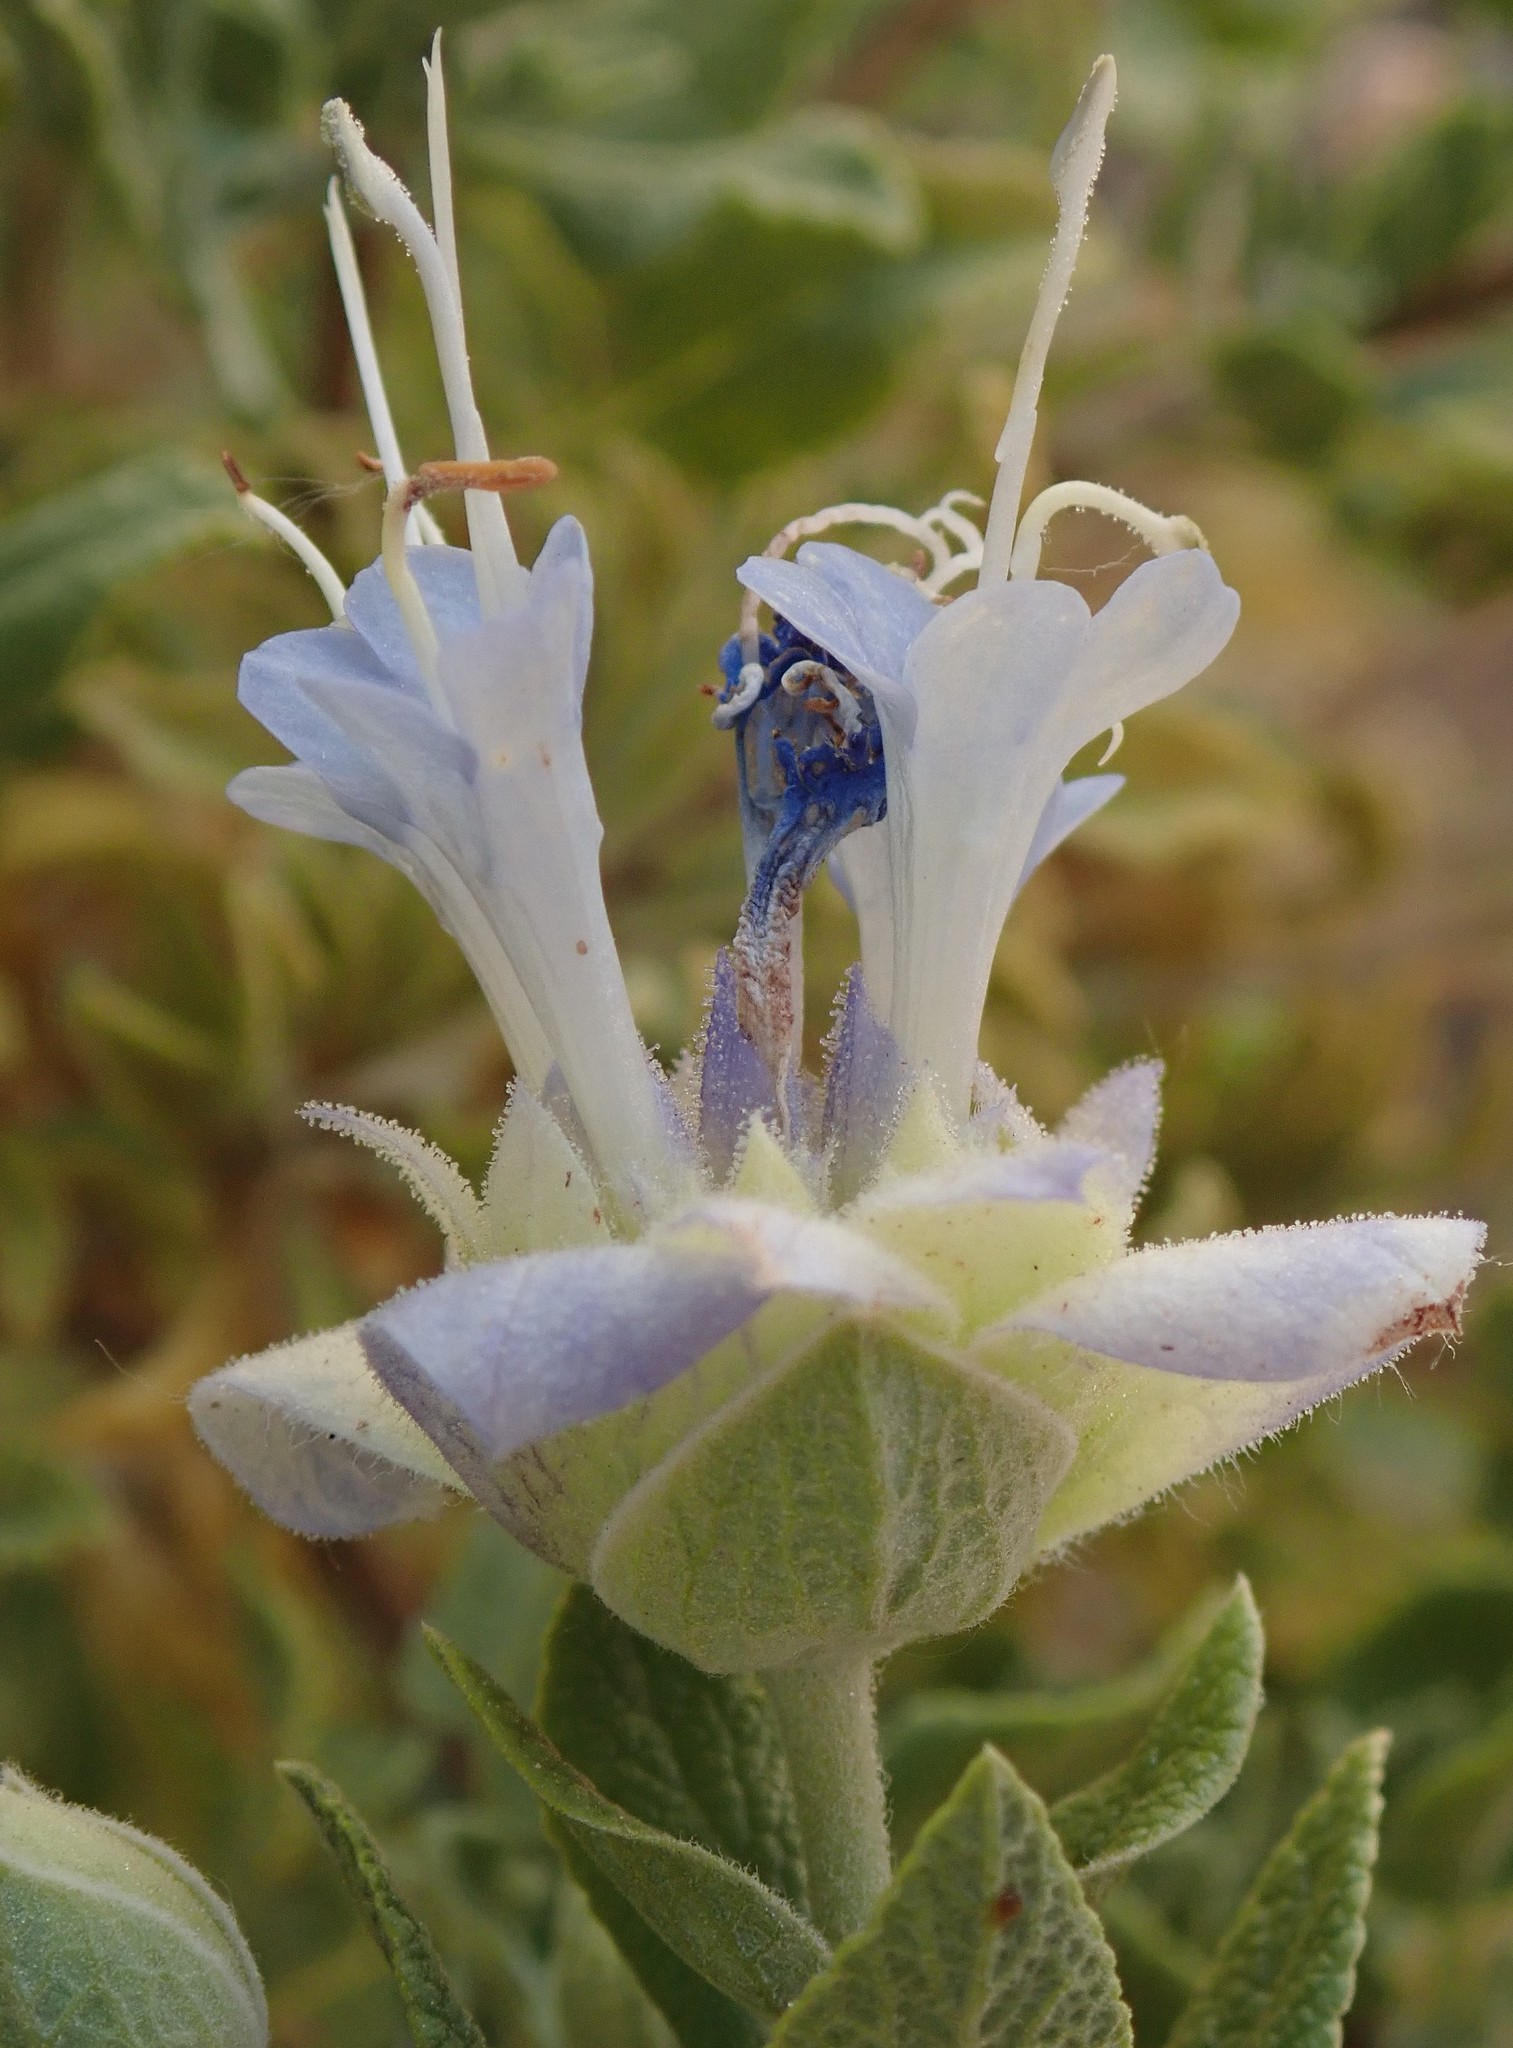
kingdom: Plantae
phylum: Tracheophyta
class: Magnoliopsida
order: Lamiales
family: Lamiaceae
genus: Salvia
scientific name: Salvia mohavensis
